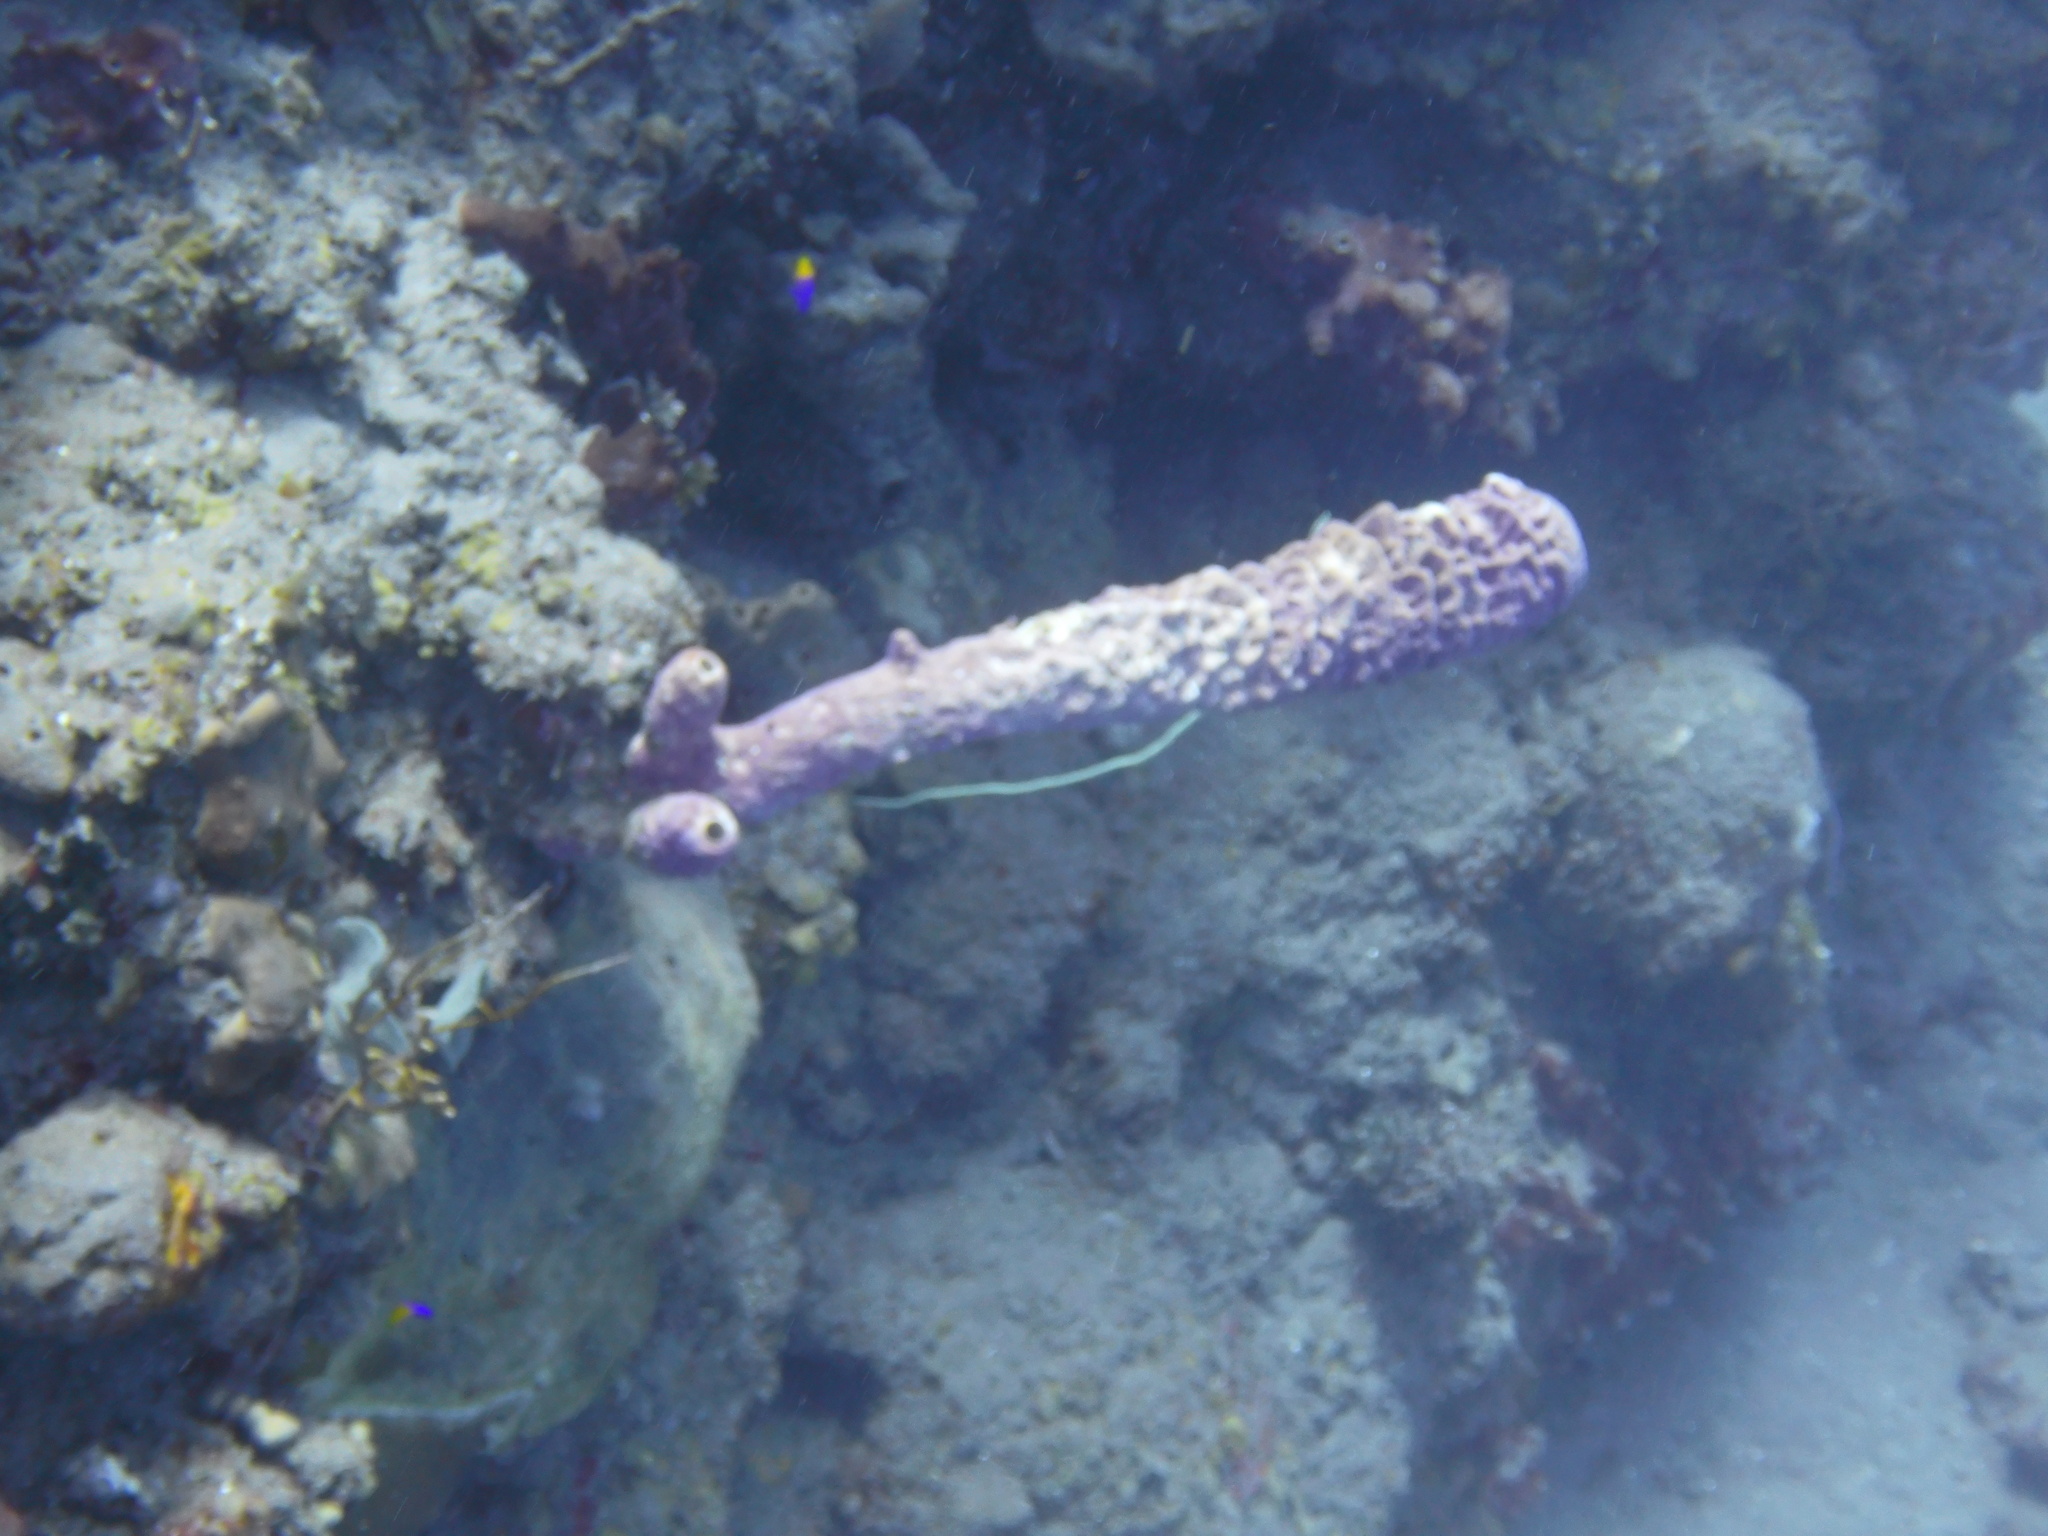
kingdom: Animalia
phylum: Porifera
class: Demospongiae
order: Verongiida
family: Aplysinidae
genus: Aplysina
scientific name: Aplysina archeri
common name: Stove-pipe sponge
